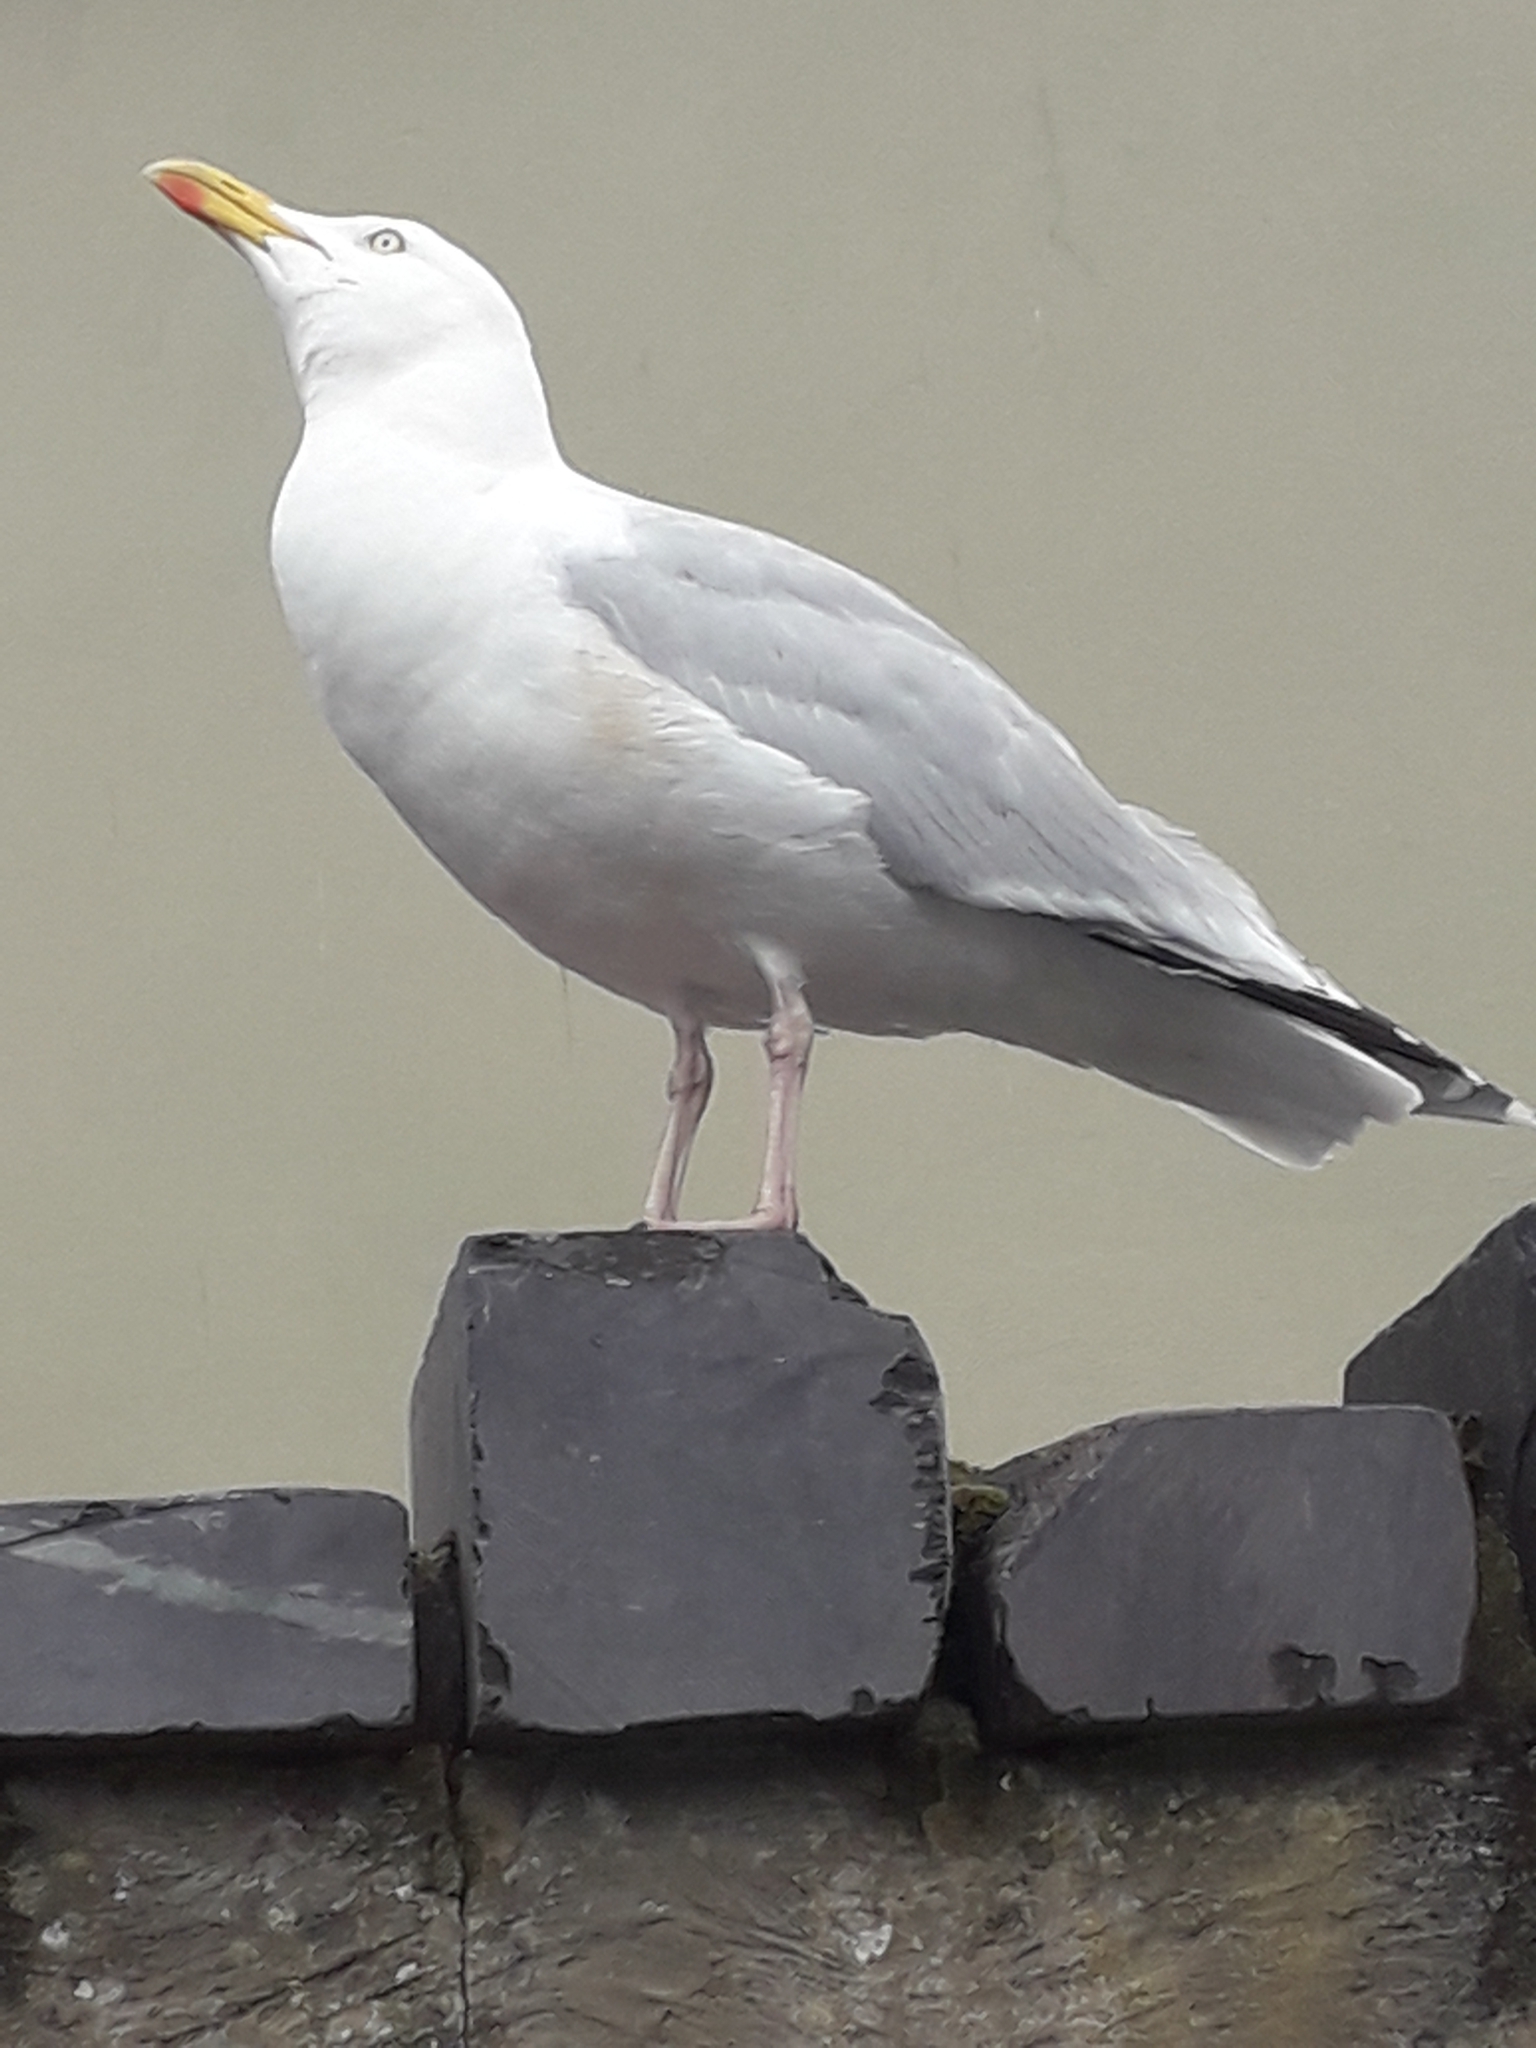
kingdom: Animalia
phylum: Chordata
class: Aves
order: Charadriiformes
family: Laridae
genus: Larus
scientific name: Larus argentatus
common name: Herring gull
